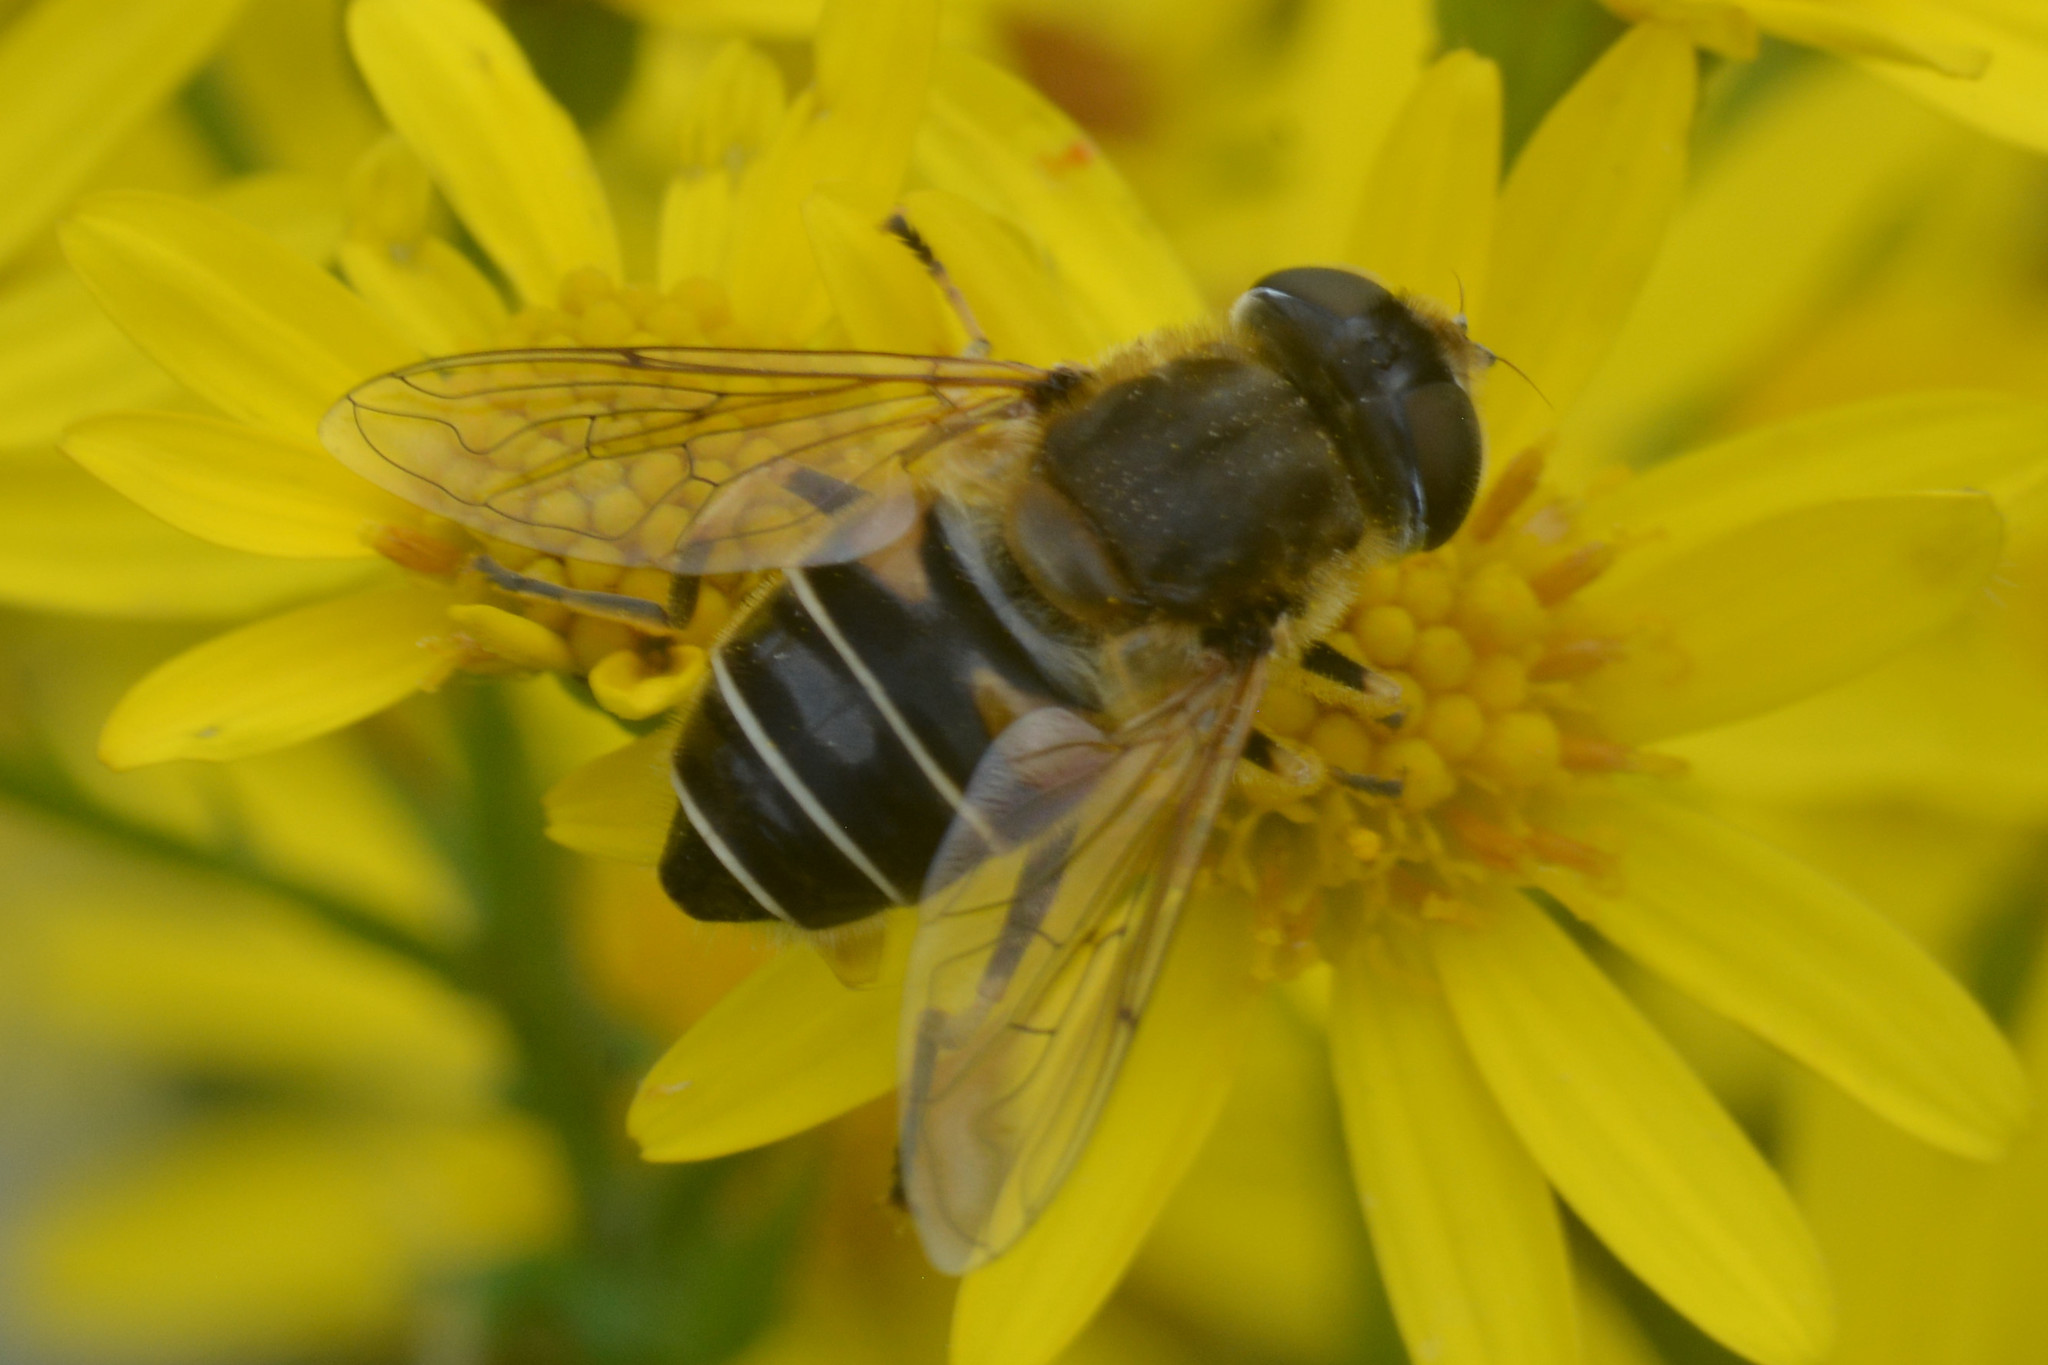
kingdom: Animalia
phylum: Arthropoda
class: Insecta
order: Diptera
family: Syrphidae
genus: Eristalis
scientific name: Eristalis nemorum
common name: Orange-spined drone fly
